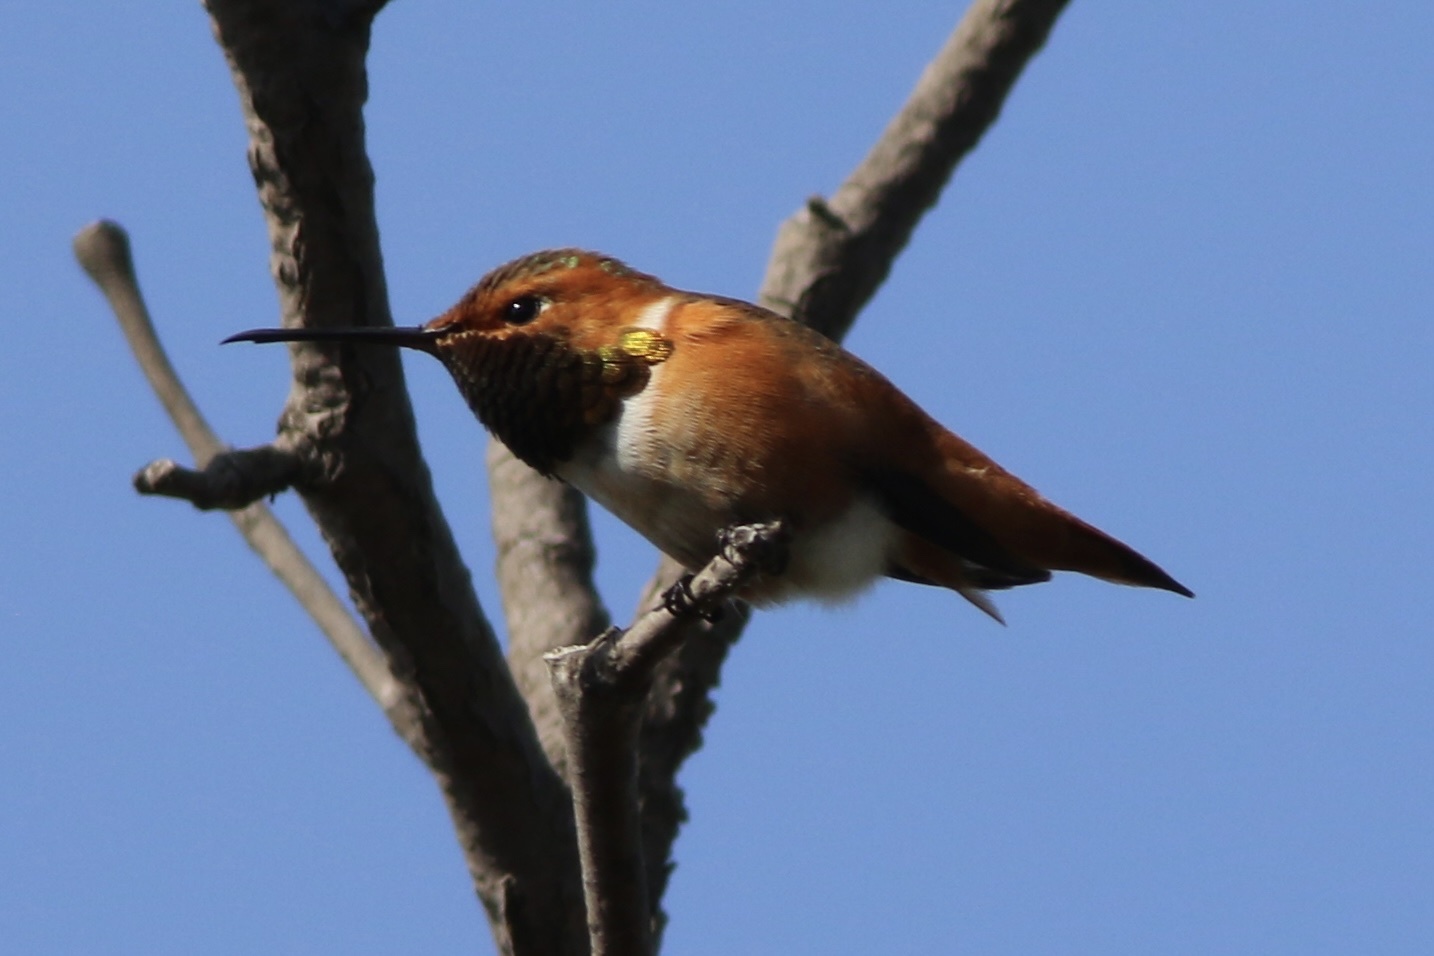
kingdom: Animalia
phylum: Chordata
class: Aves
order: Apodiformes
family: Trochilidae
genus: Selasphorus
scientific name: Selasphorus sasin
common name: Allen's hummingbird
